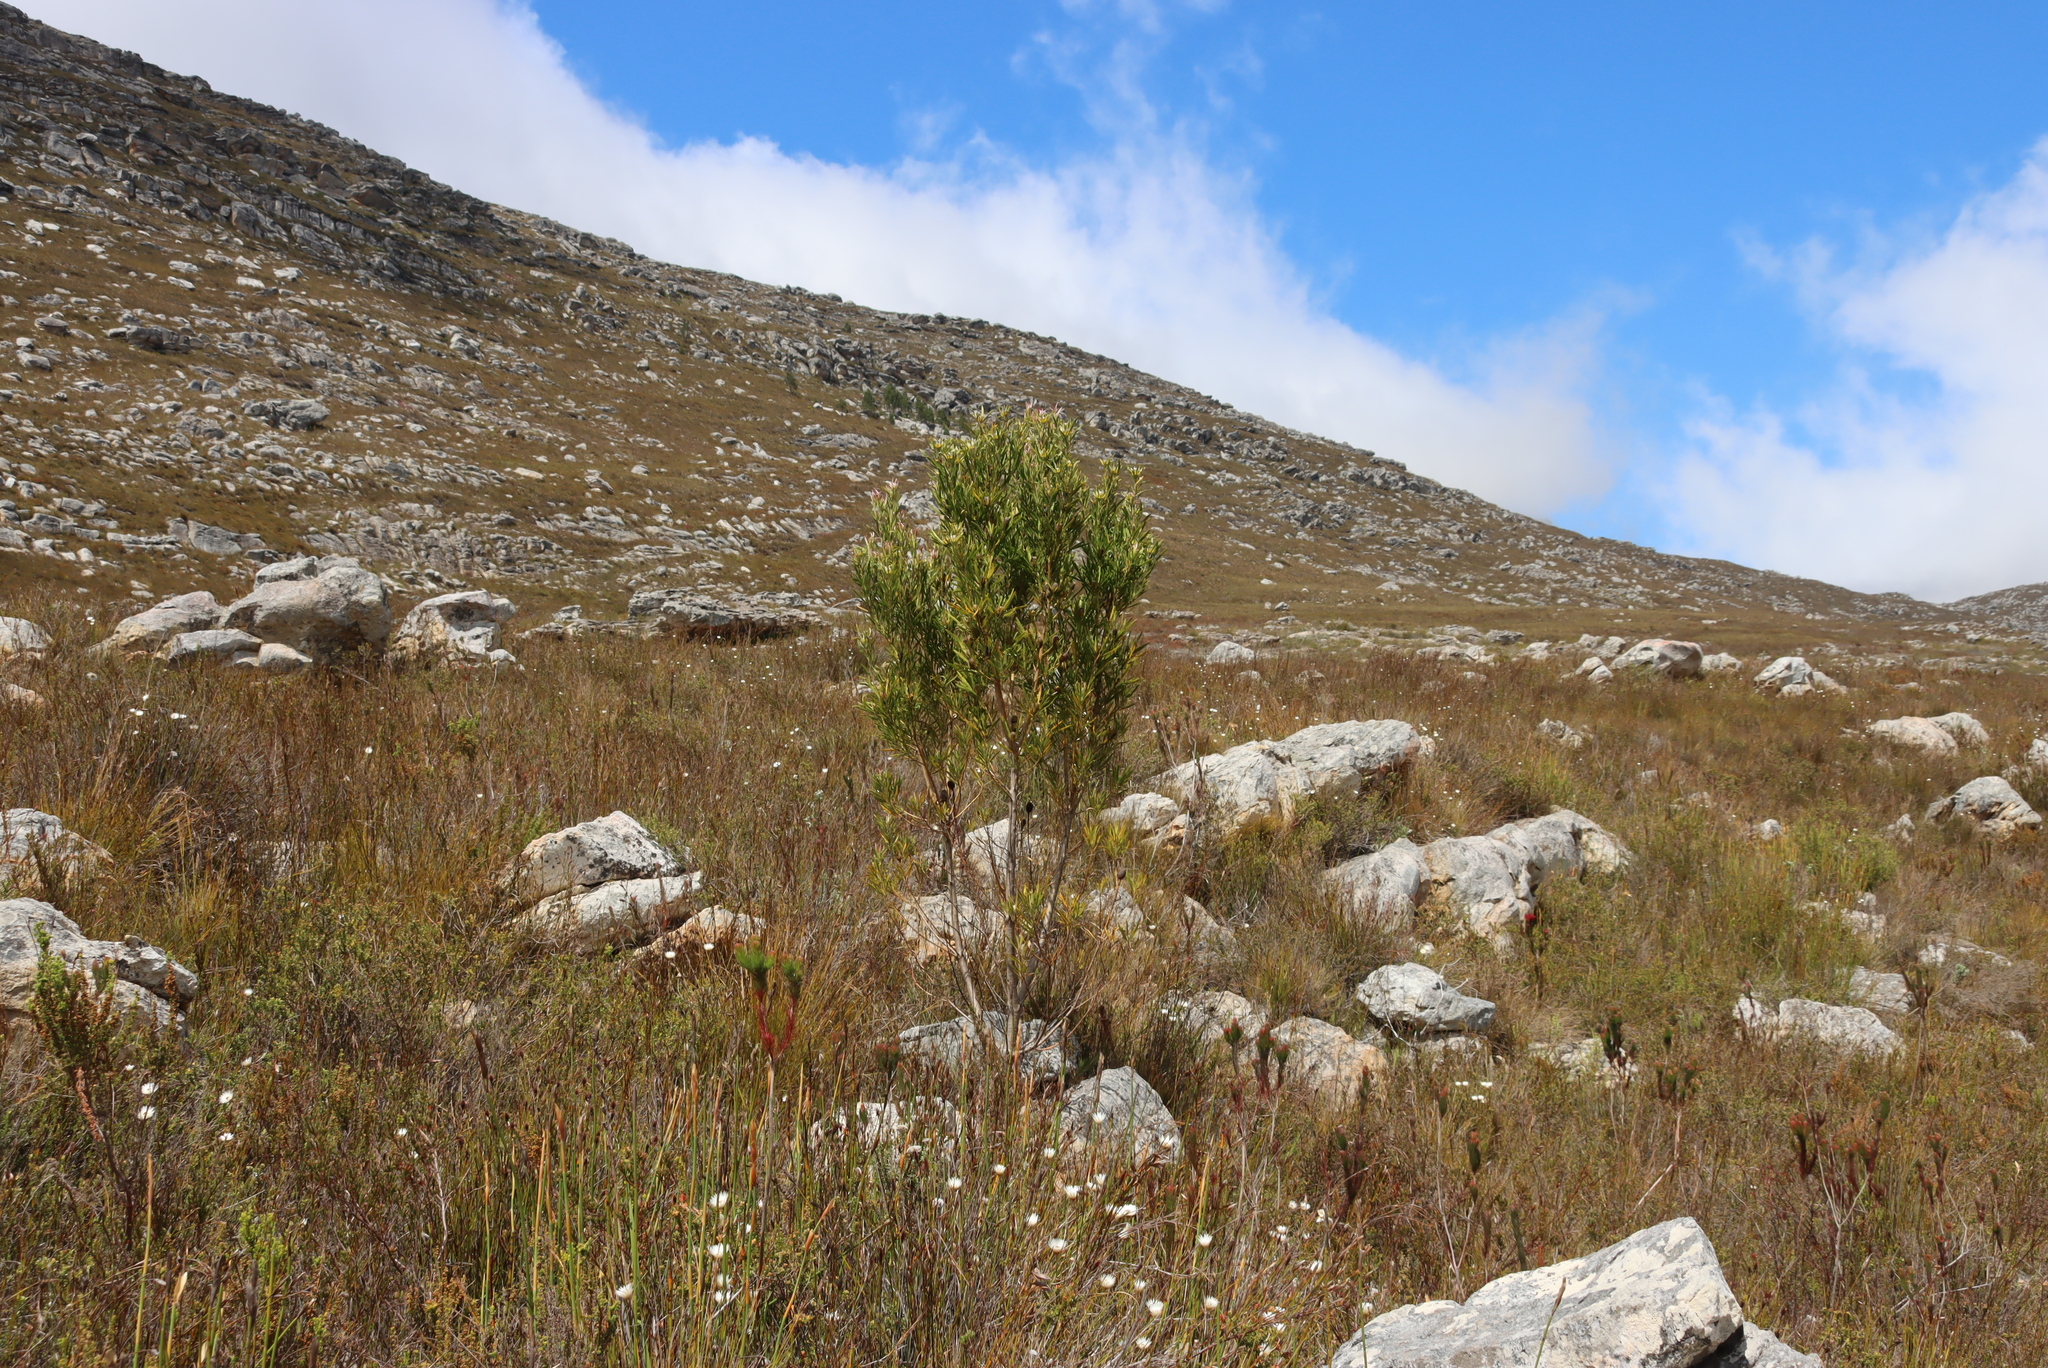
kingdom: Plantae
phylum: Tracheophyta
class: Magnoliopsida
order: Ericales
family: Ericaceae
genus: Erica
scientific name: Erica vestita
